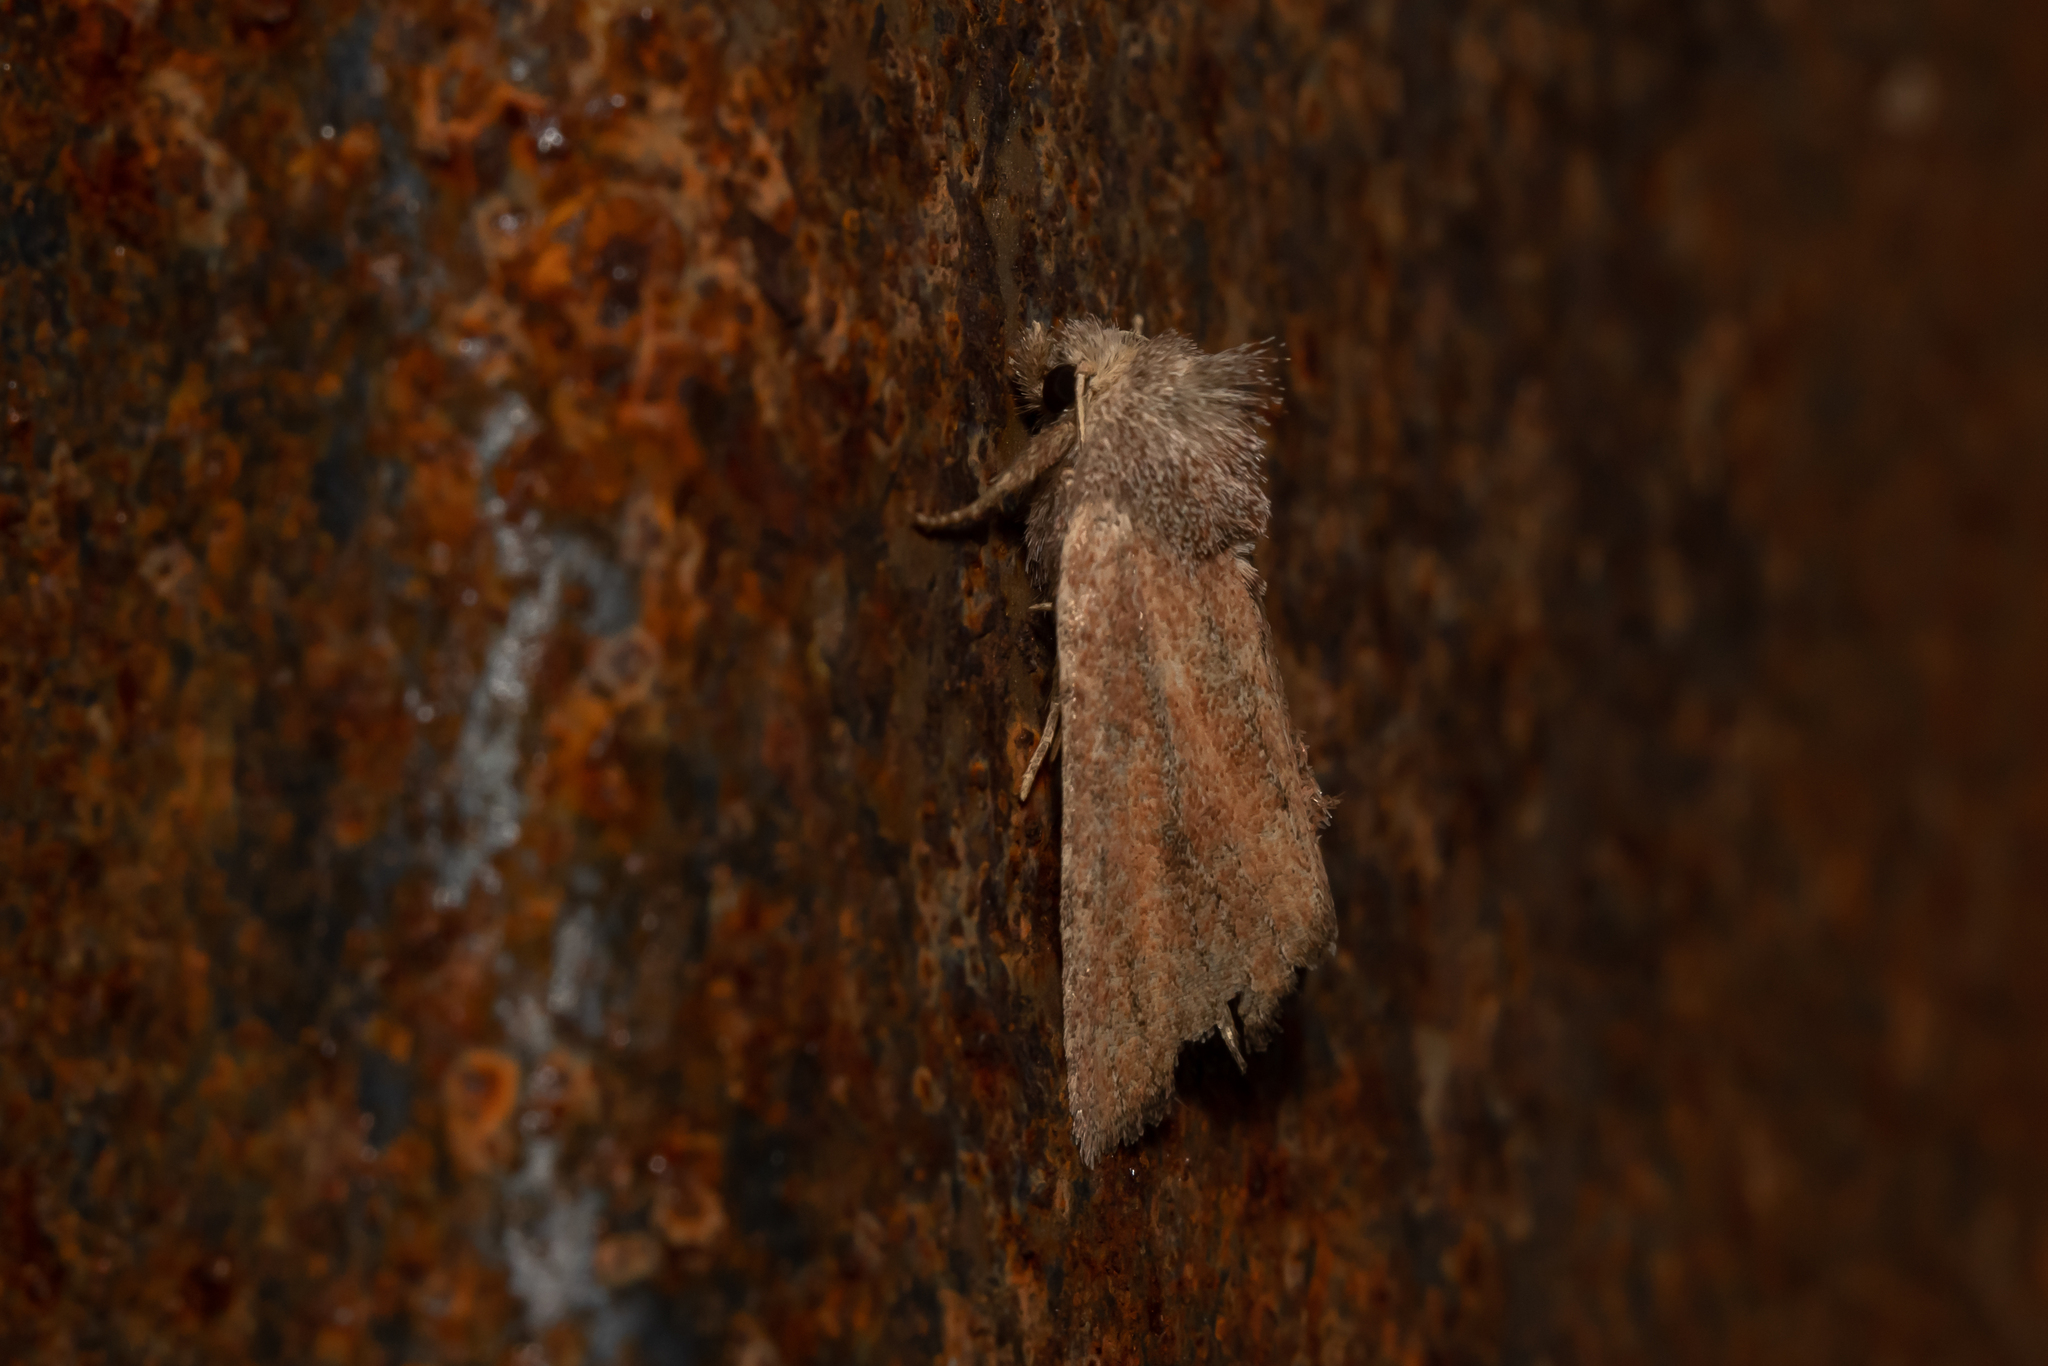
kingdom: Animalia
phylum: Arthropoda
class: Insecta
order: Lepidoptera
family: Noctuidae
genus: Photedes
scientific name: Photedes fluxa
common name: Mere wainscot
